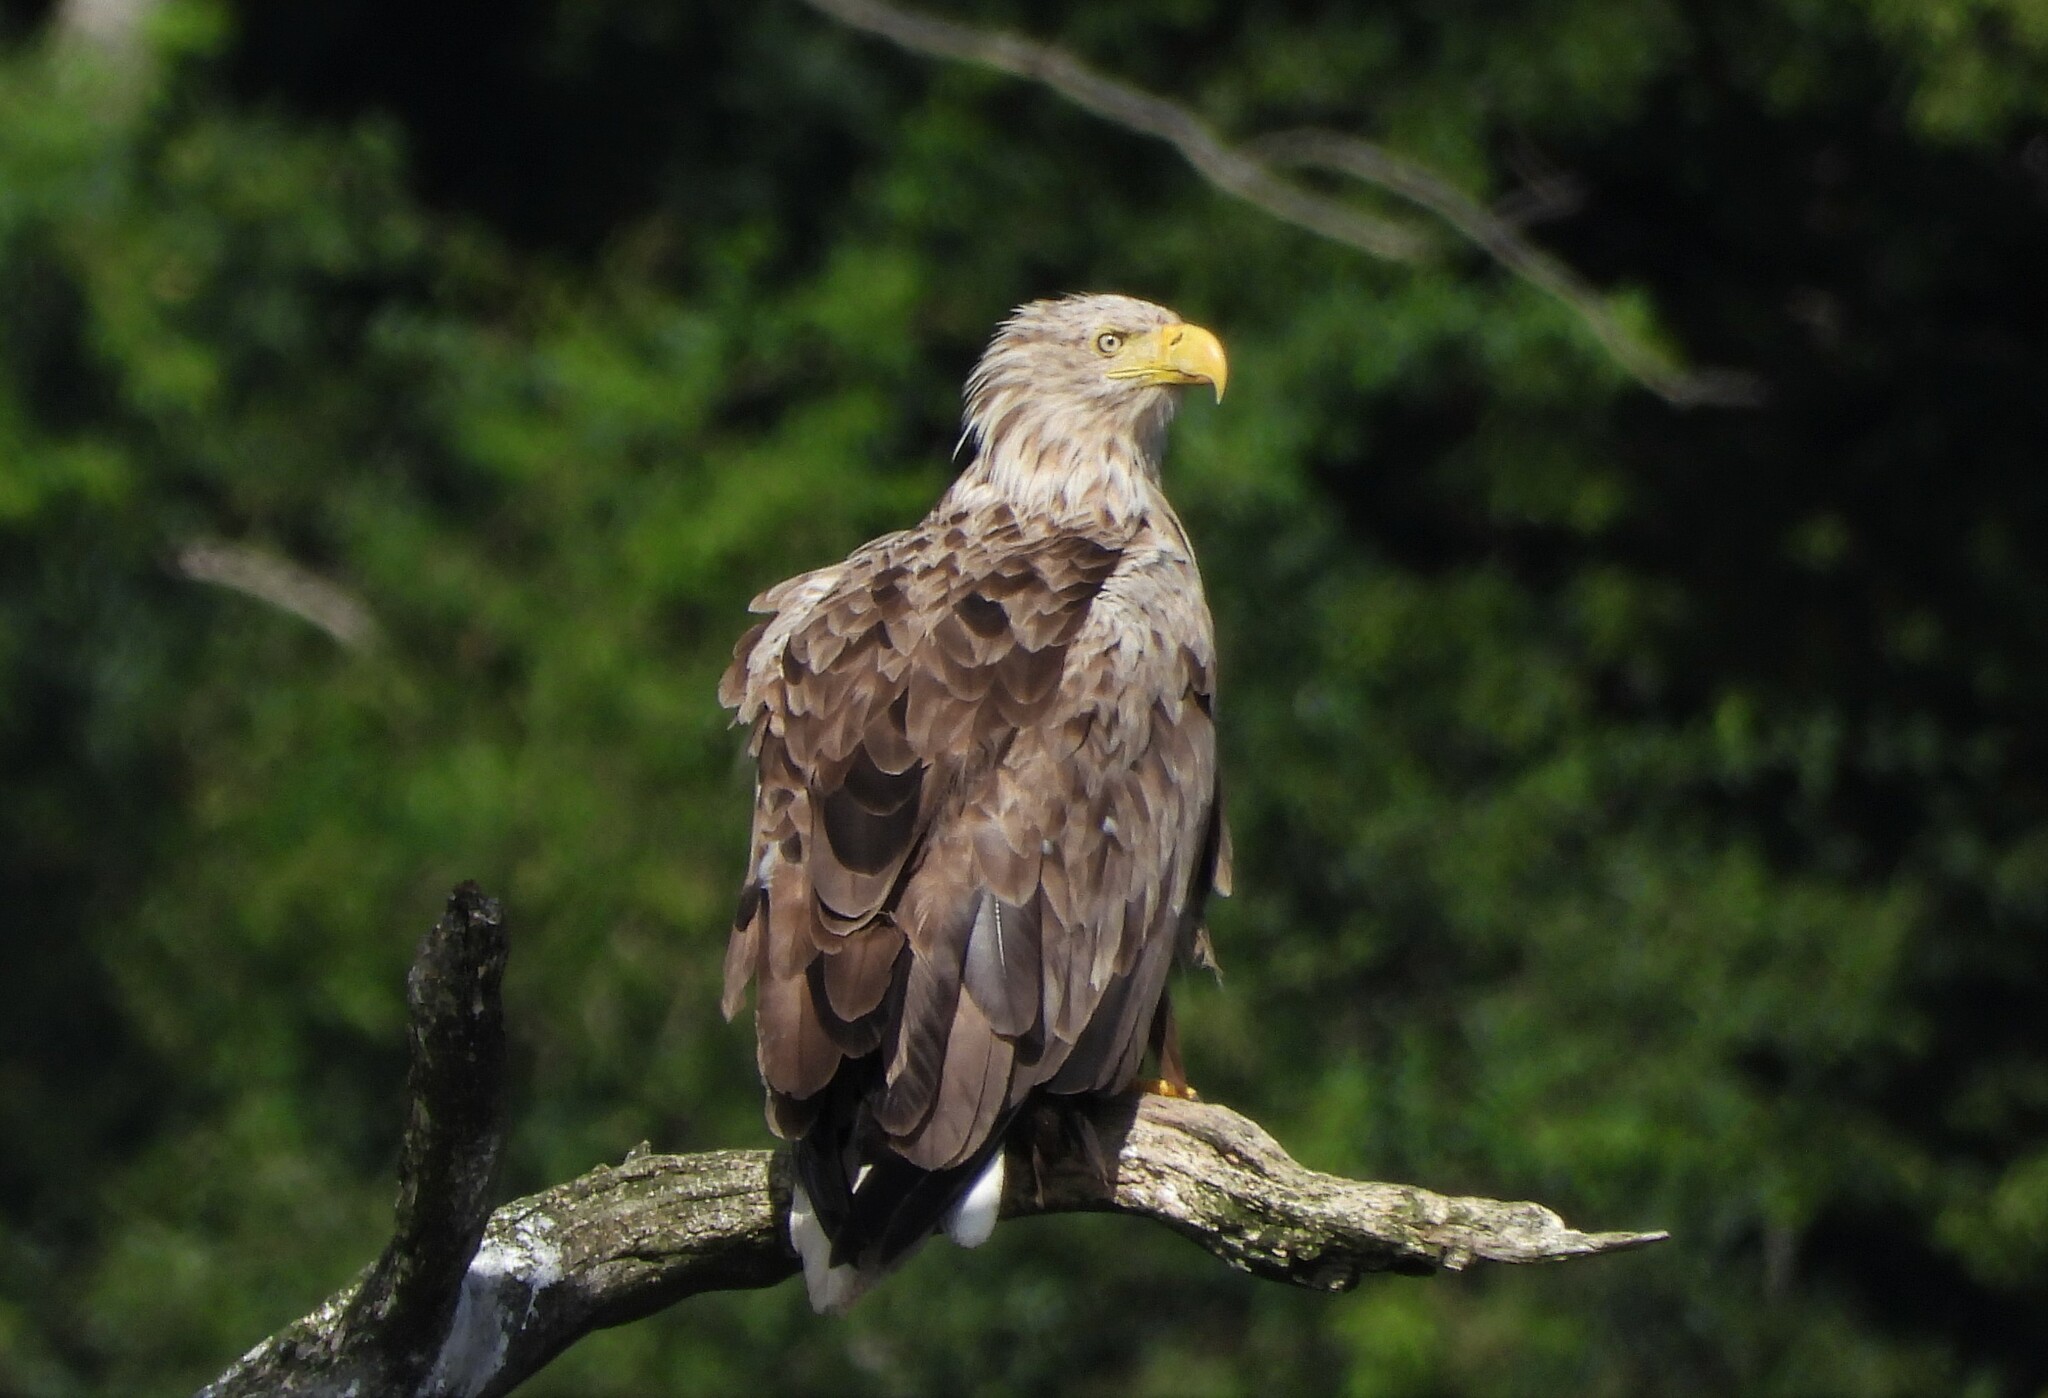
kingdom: Animalia
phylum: Chordata
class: Aves
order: Accipitriformes
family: Accipitridae
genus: Haliaeetus
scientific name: Haliaeetus albicilla
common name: White-tailed eagle
